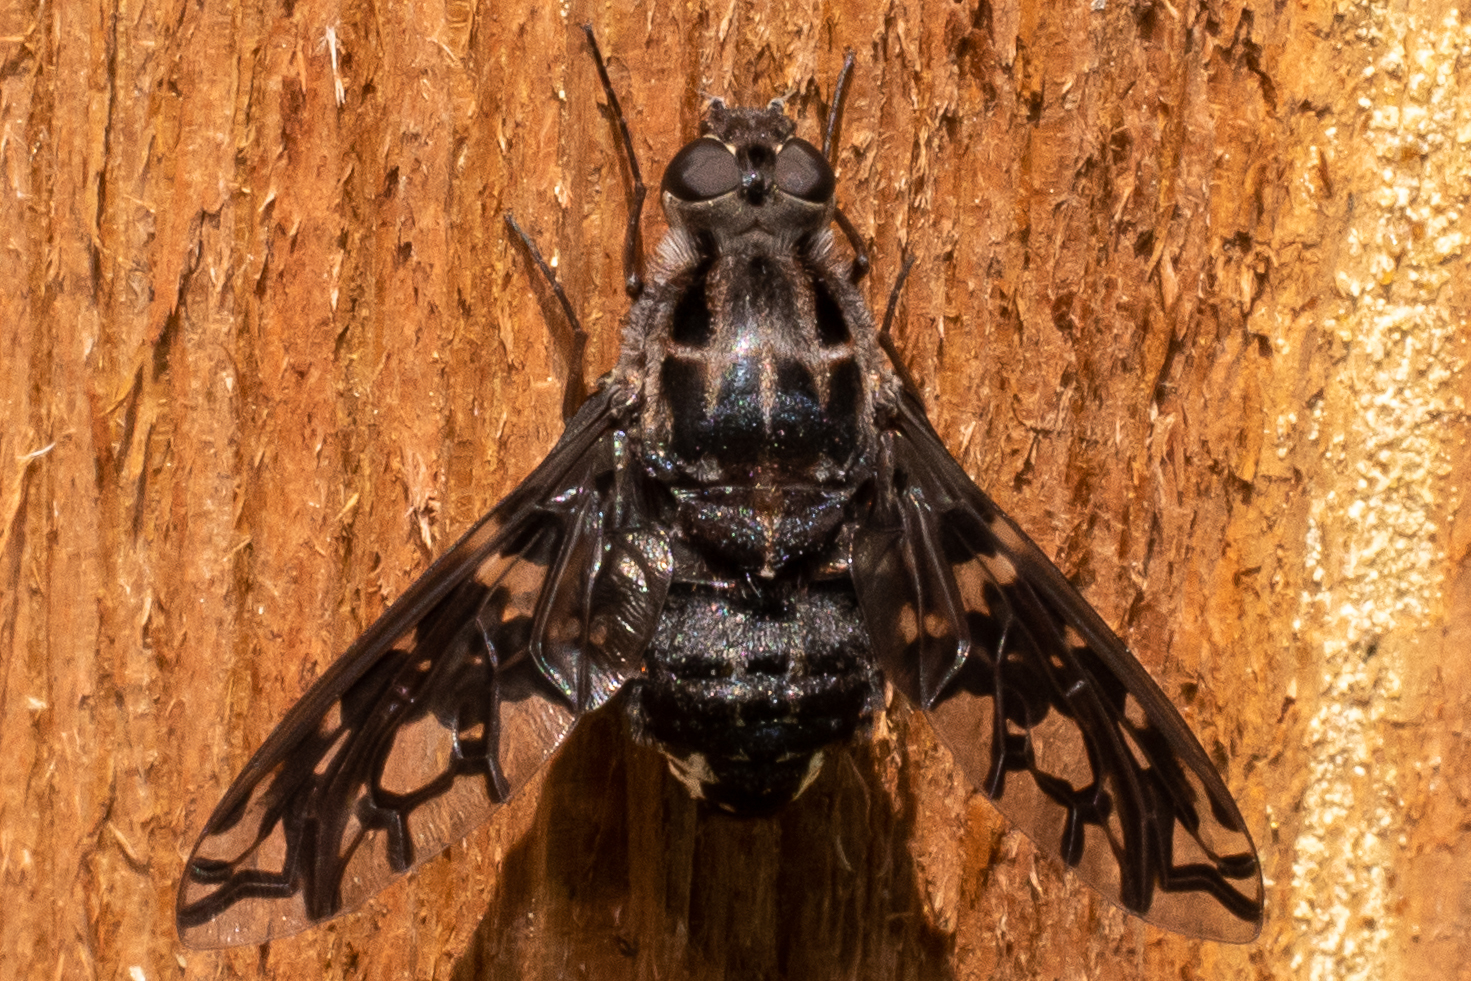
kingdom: Animalia
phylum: Arthropoda
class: Insecta
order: Diptera
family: Bombyliidae
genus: Xenox
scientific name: Xenox tigrinus
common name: Tiger bee fly
